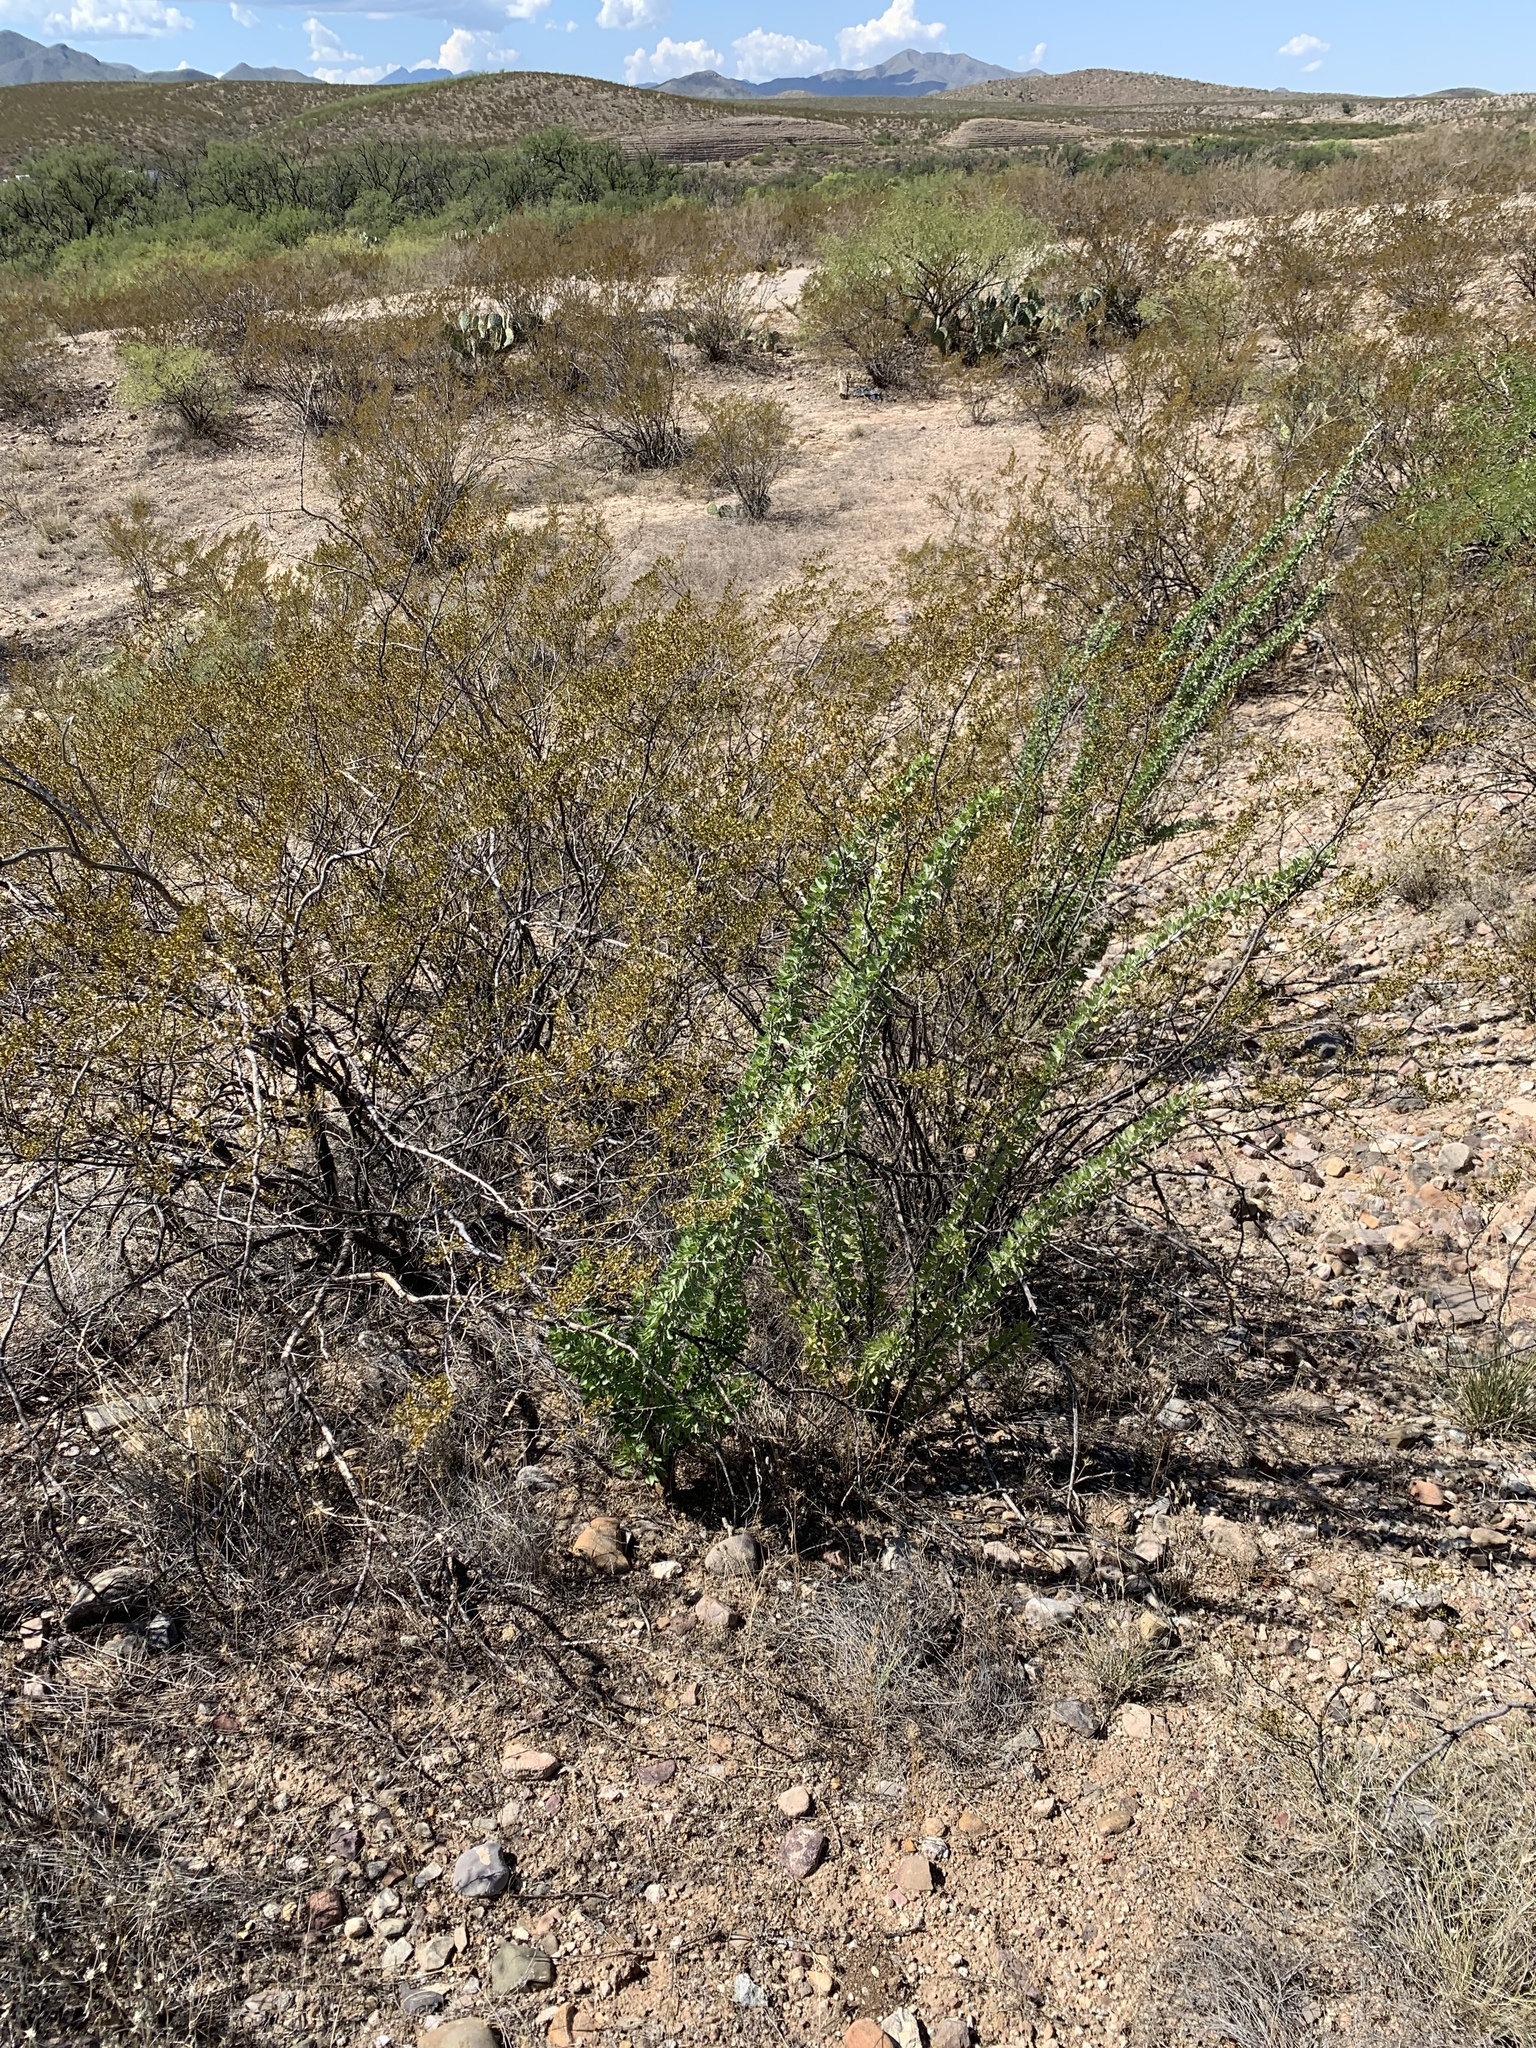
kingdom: Plantae
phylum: Tracheophyta
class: Magnoliopsida
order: Zygophyllales
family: Zygophyllaceae
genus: Larrea
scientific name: Larrea tridentata
